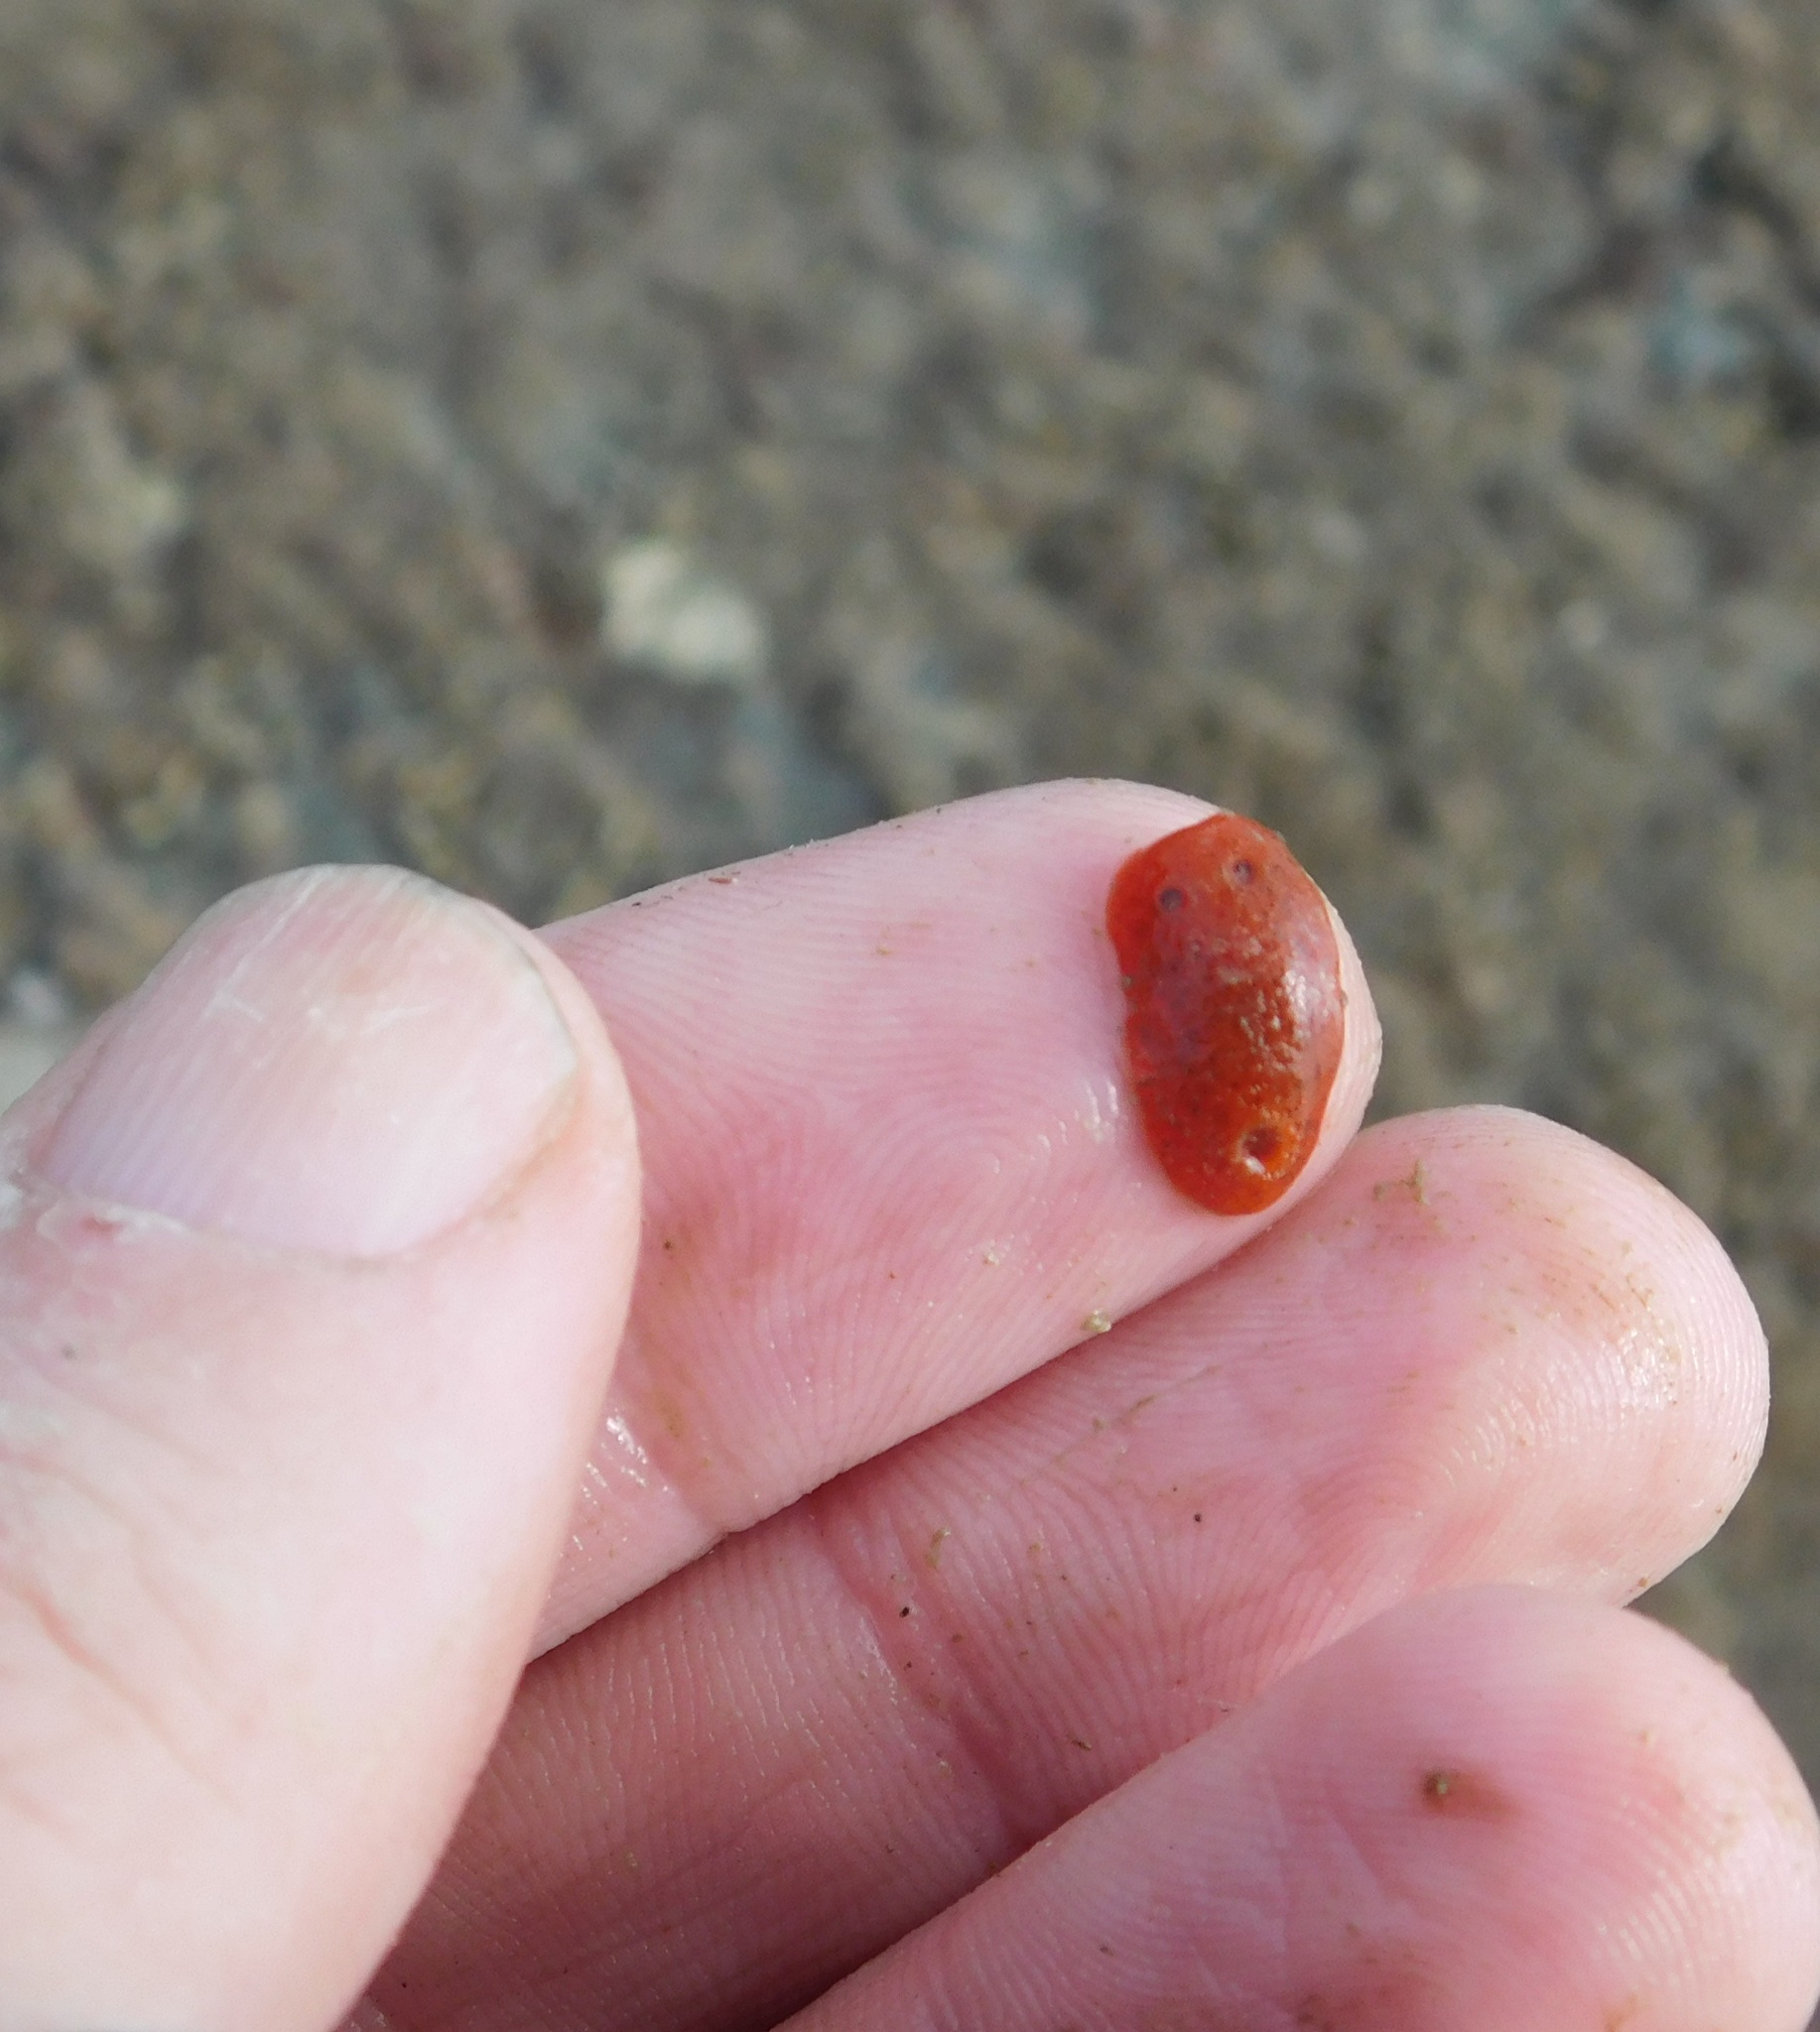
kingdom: Animalia
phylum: Mollusca
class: Gastropoda
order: Nudibranchia
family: Discodorididae
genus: Rostanga
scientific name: Rostanga muscula
